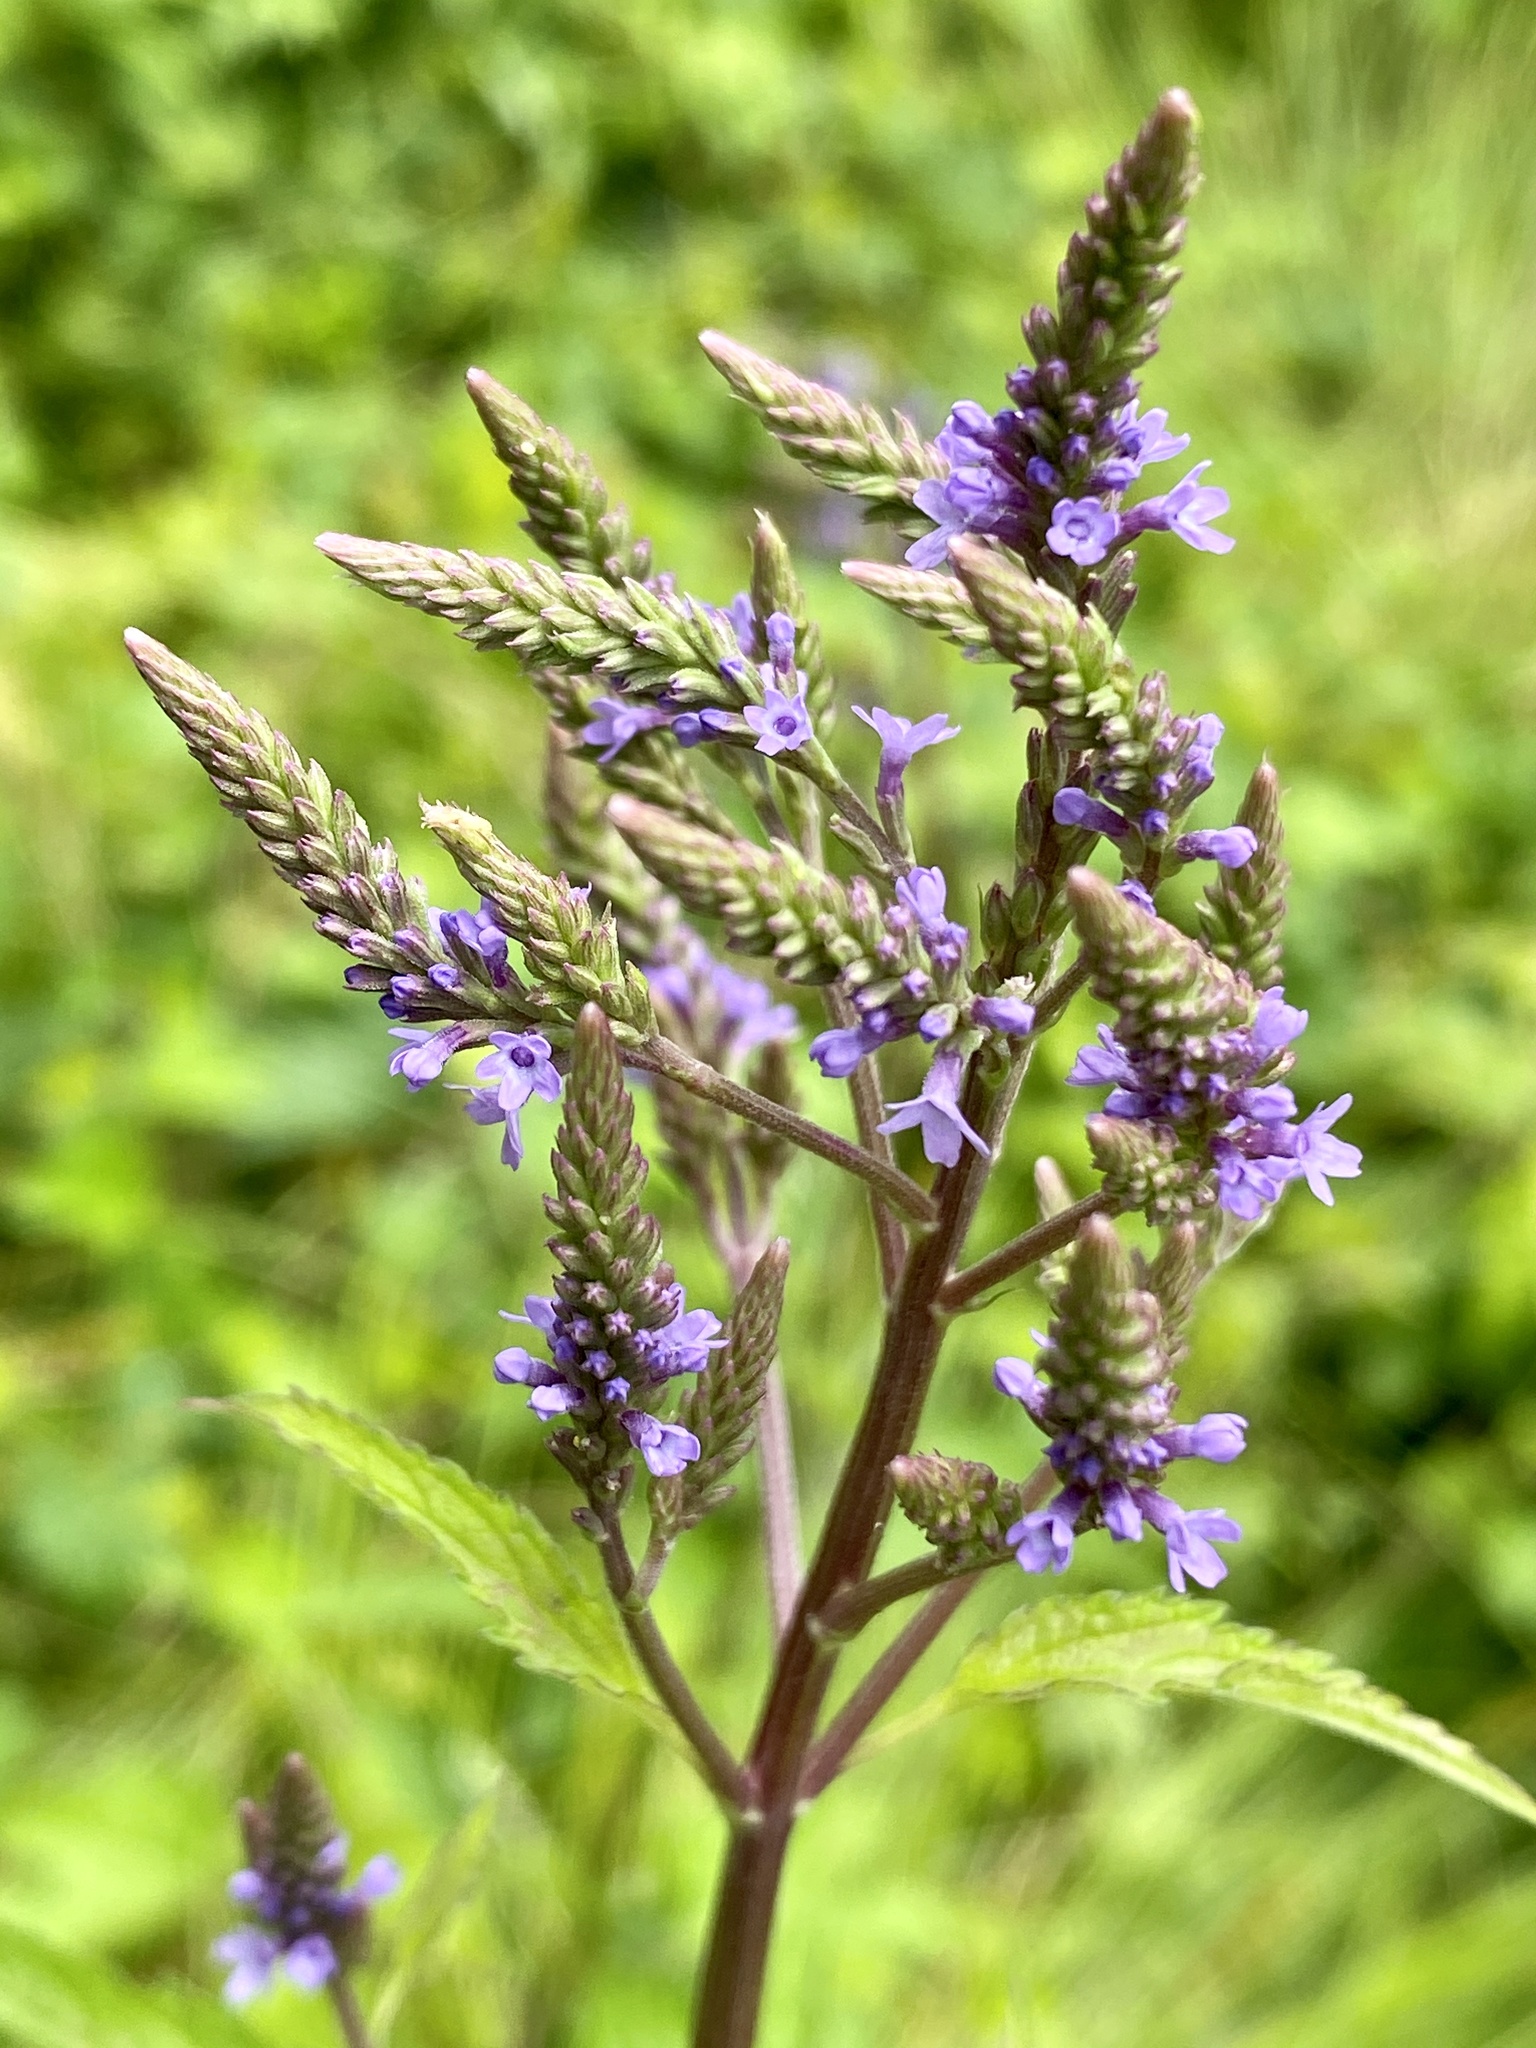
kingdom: Plantae
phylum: Tracheophyta
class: Magnoliopsida
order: Lamiales
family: Verbenaceae
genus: Verbena
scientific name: Verbena hastata
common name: American blue vervain
